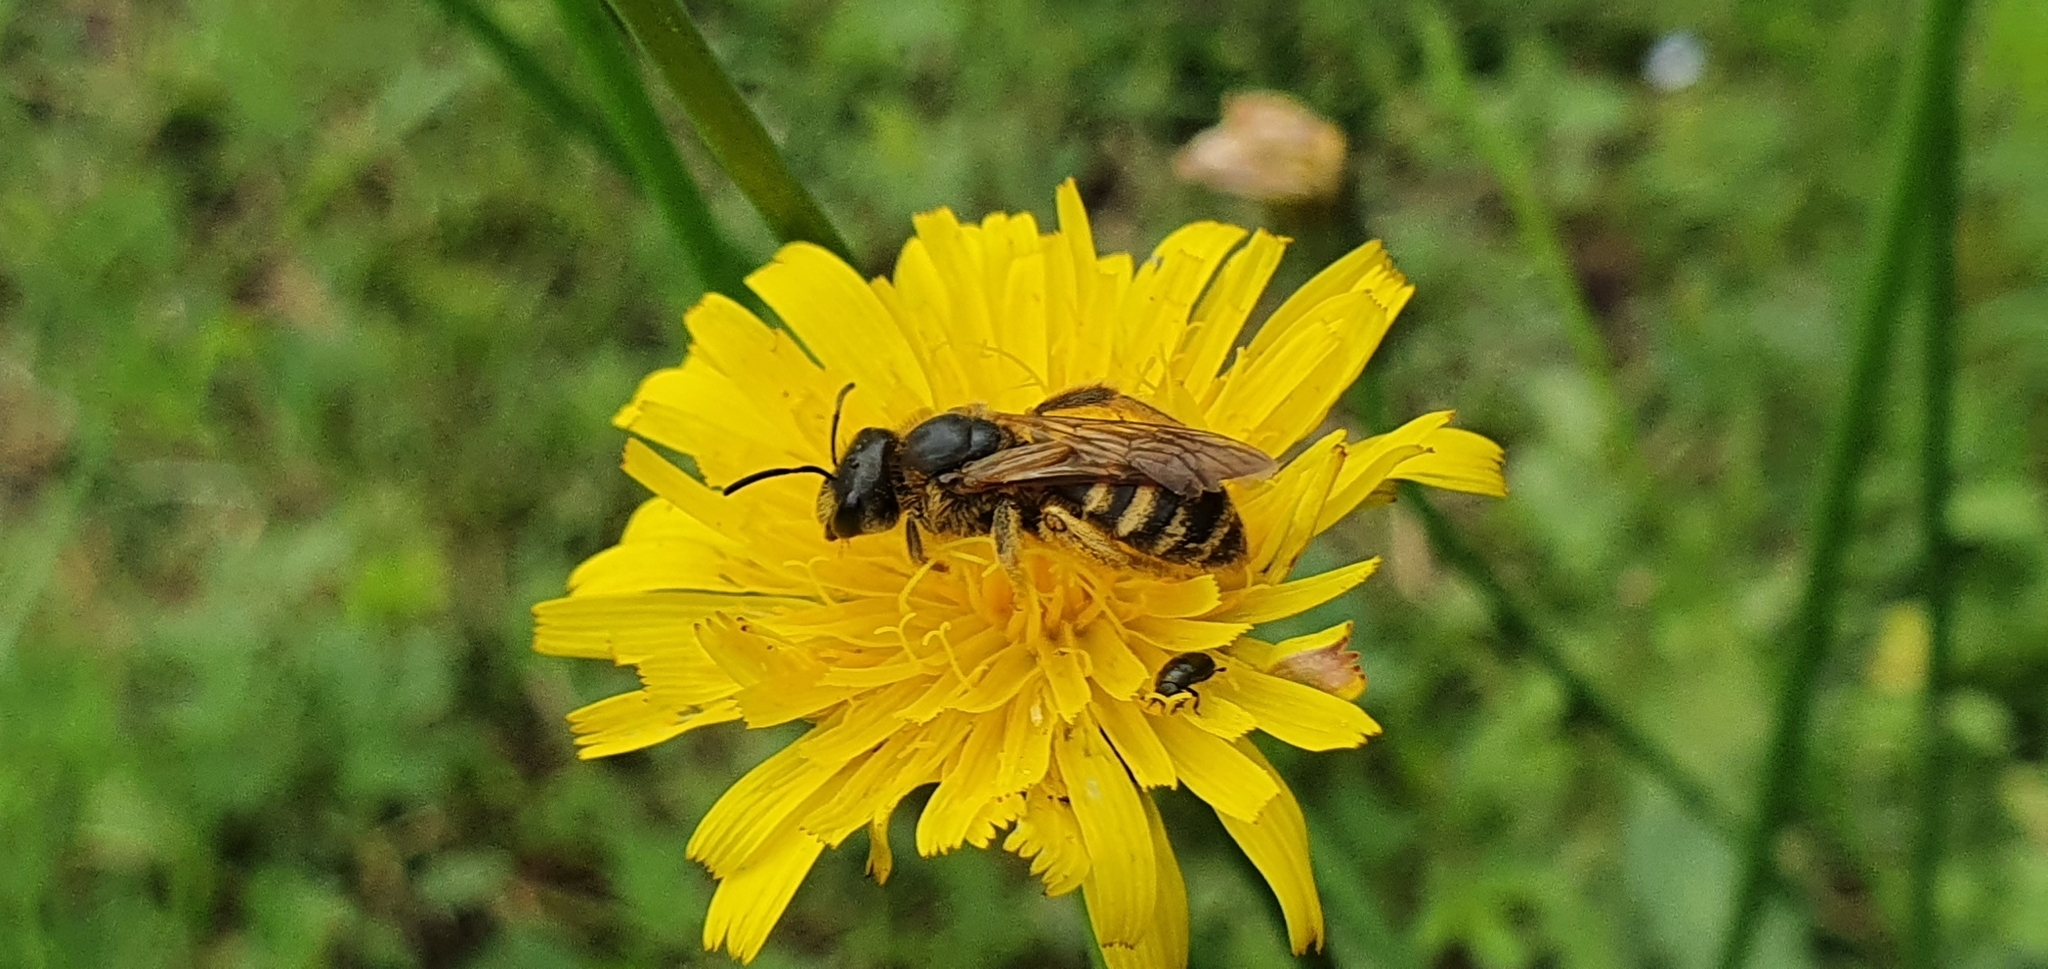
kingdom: Animalia
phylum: Arthropoda
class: Insecta
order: Hymenoptera
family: Halictidae
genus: Halictus
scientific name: Halictus scabiosae
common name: Great banded furrow bee
